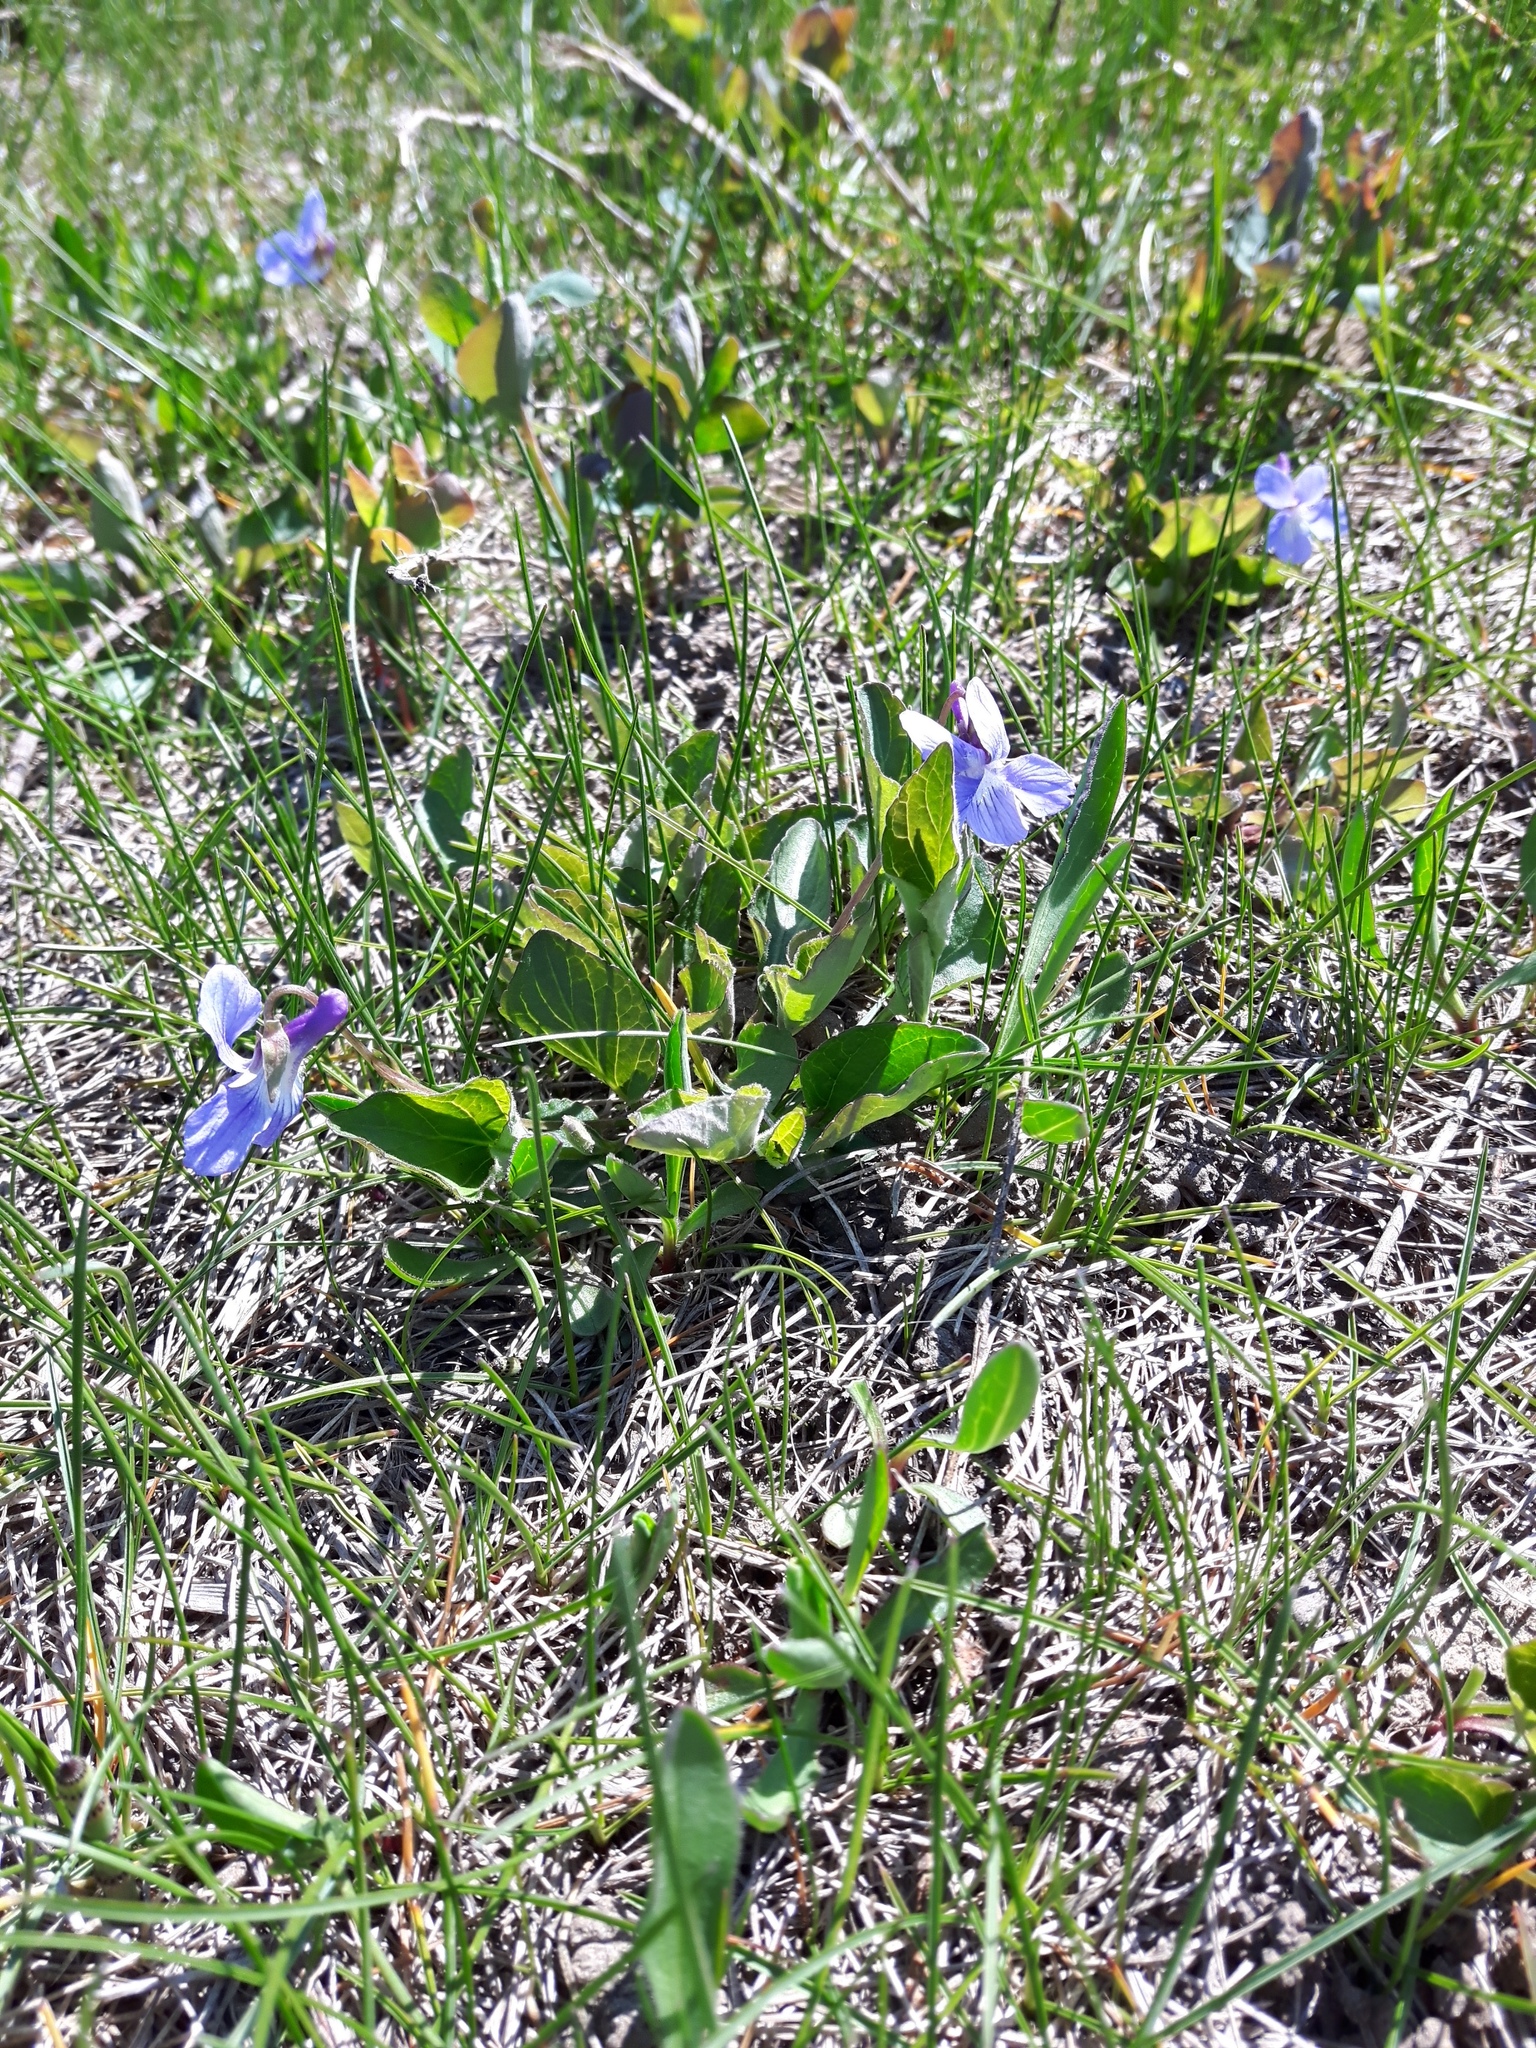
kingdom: Plantae
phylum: Tracheophyta
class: Magnoliopsida
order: Malpighiales
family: Violaceae
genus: Viola
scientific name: Viola adunca
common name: Sand violet
